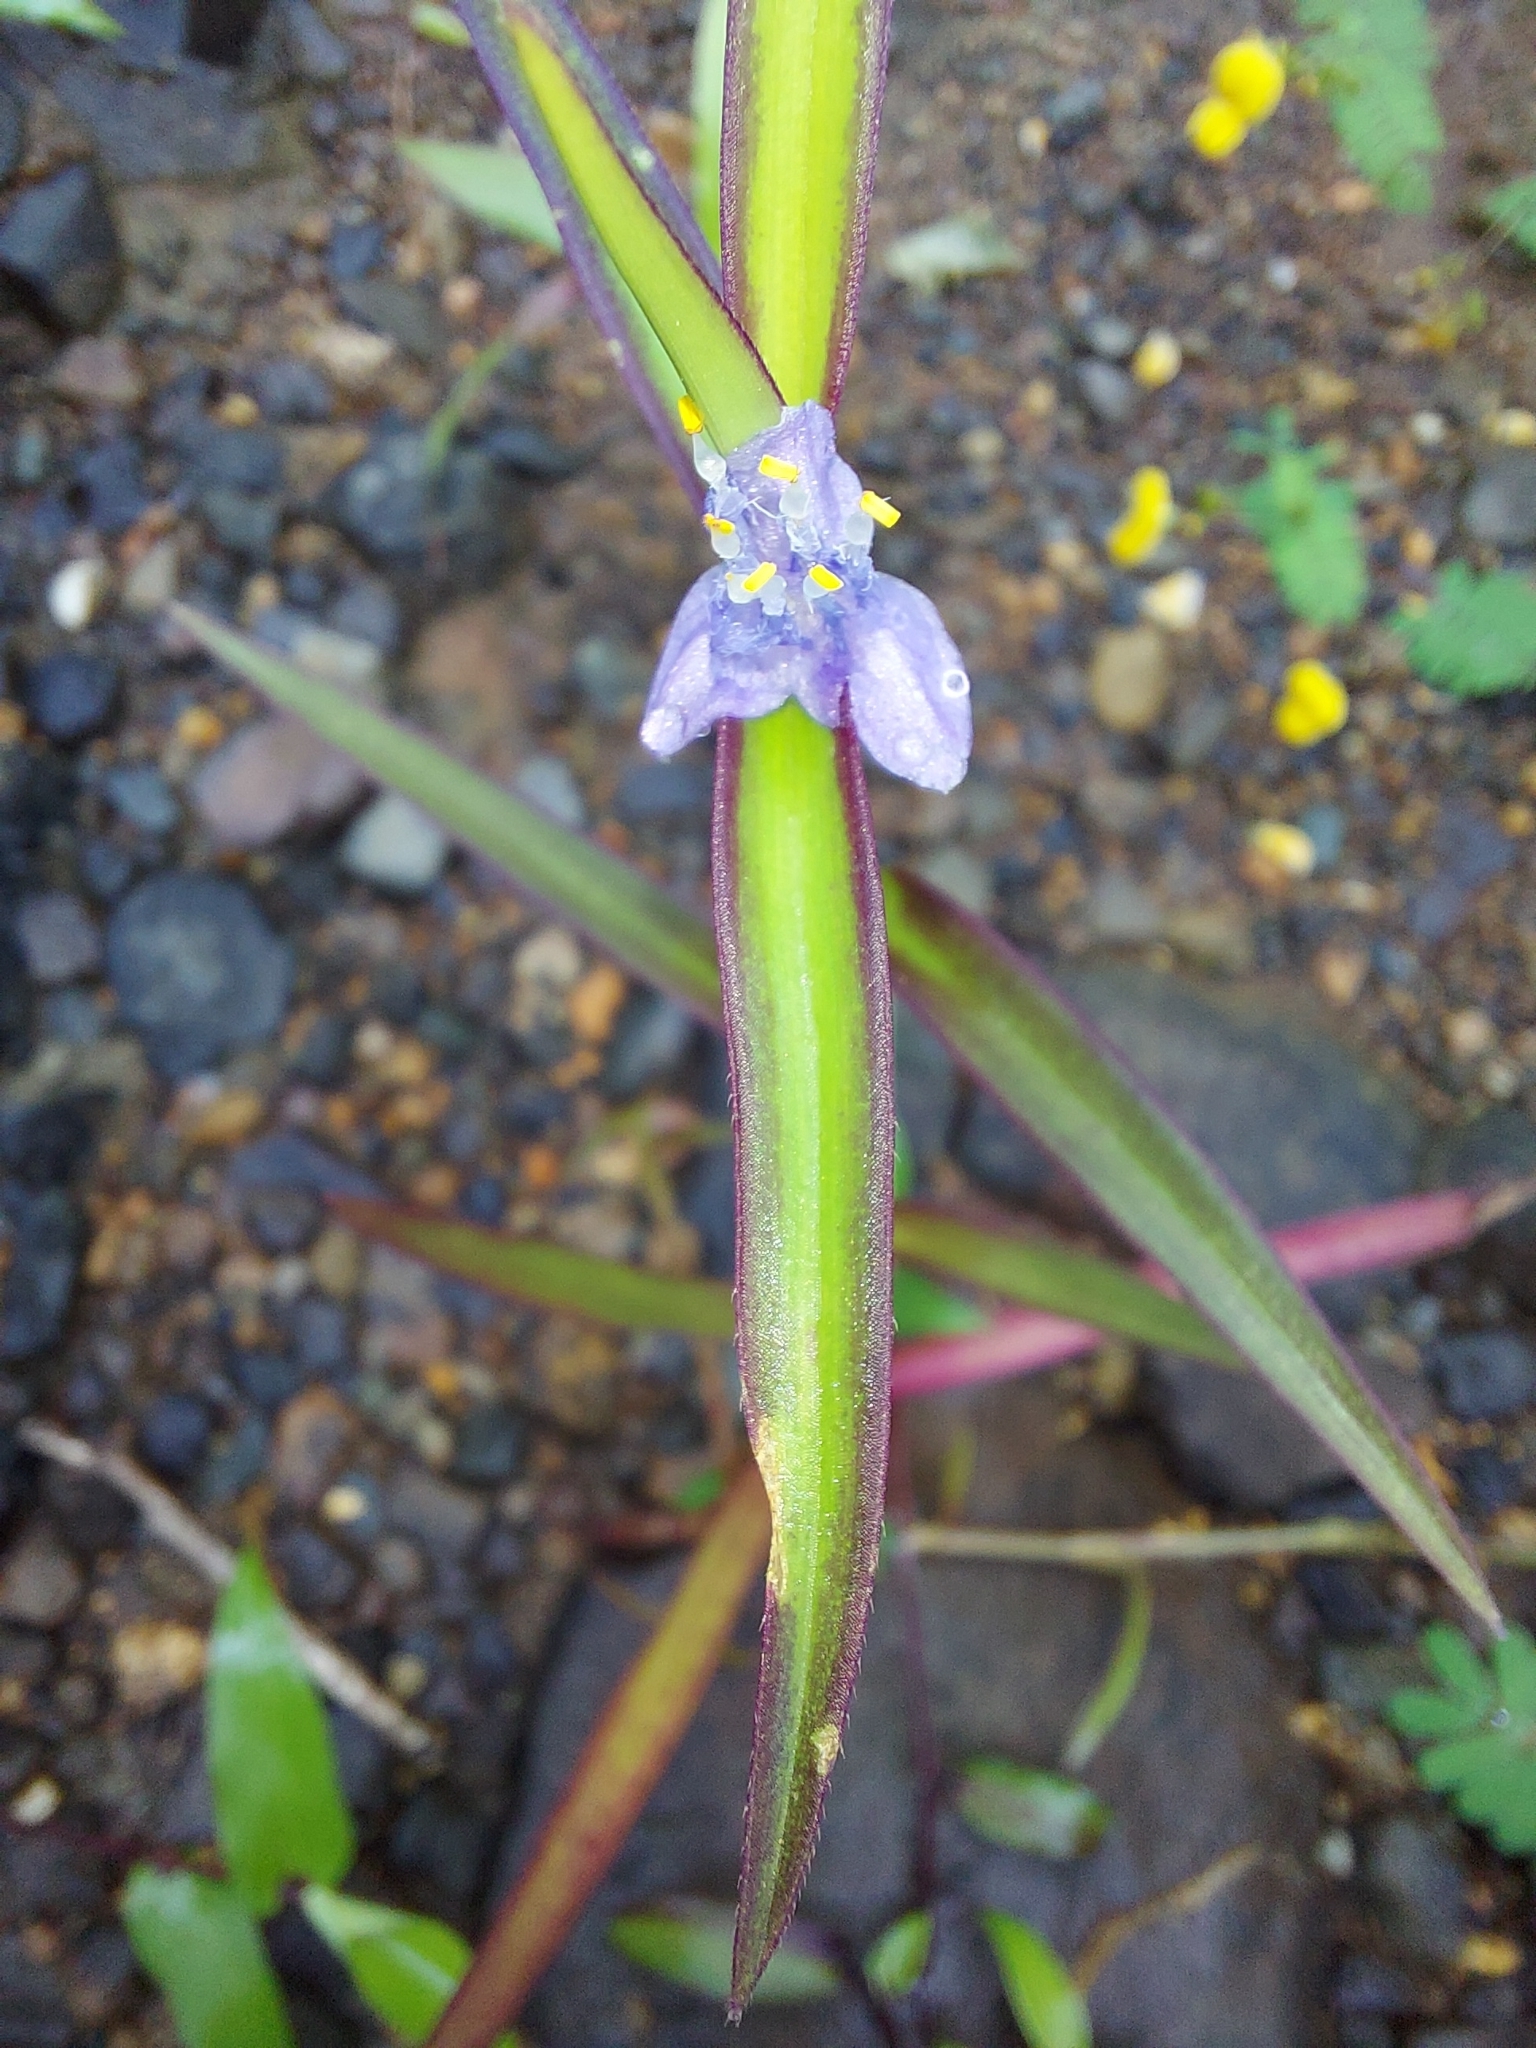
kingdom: Plantae
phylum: Tracheophyta
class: Liliopsida
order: Commelinales
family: Commelinaceae
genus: Cyanotis
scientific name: Cyanotis axillaris
